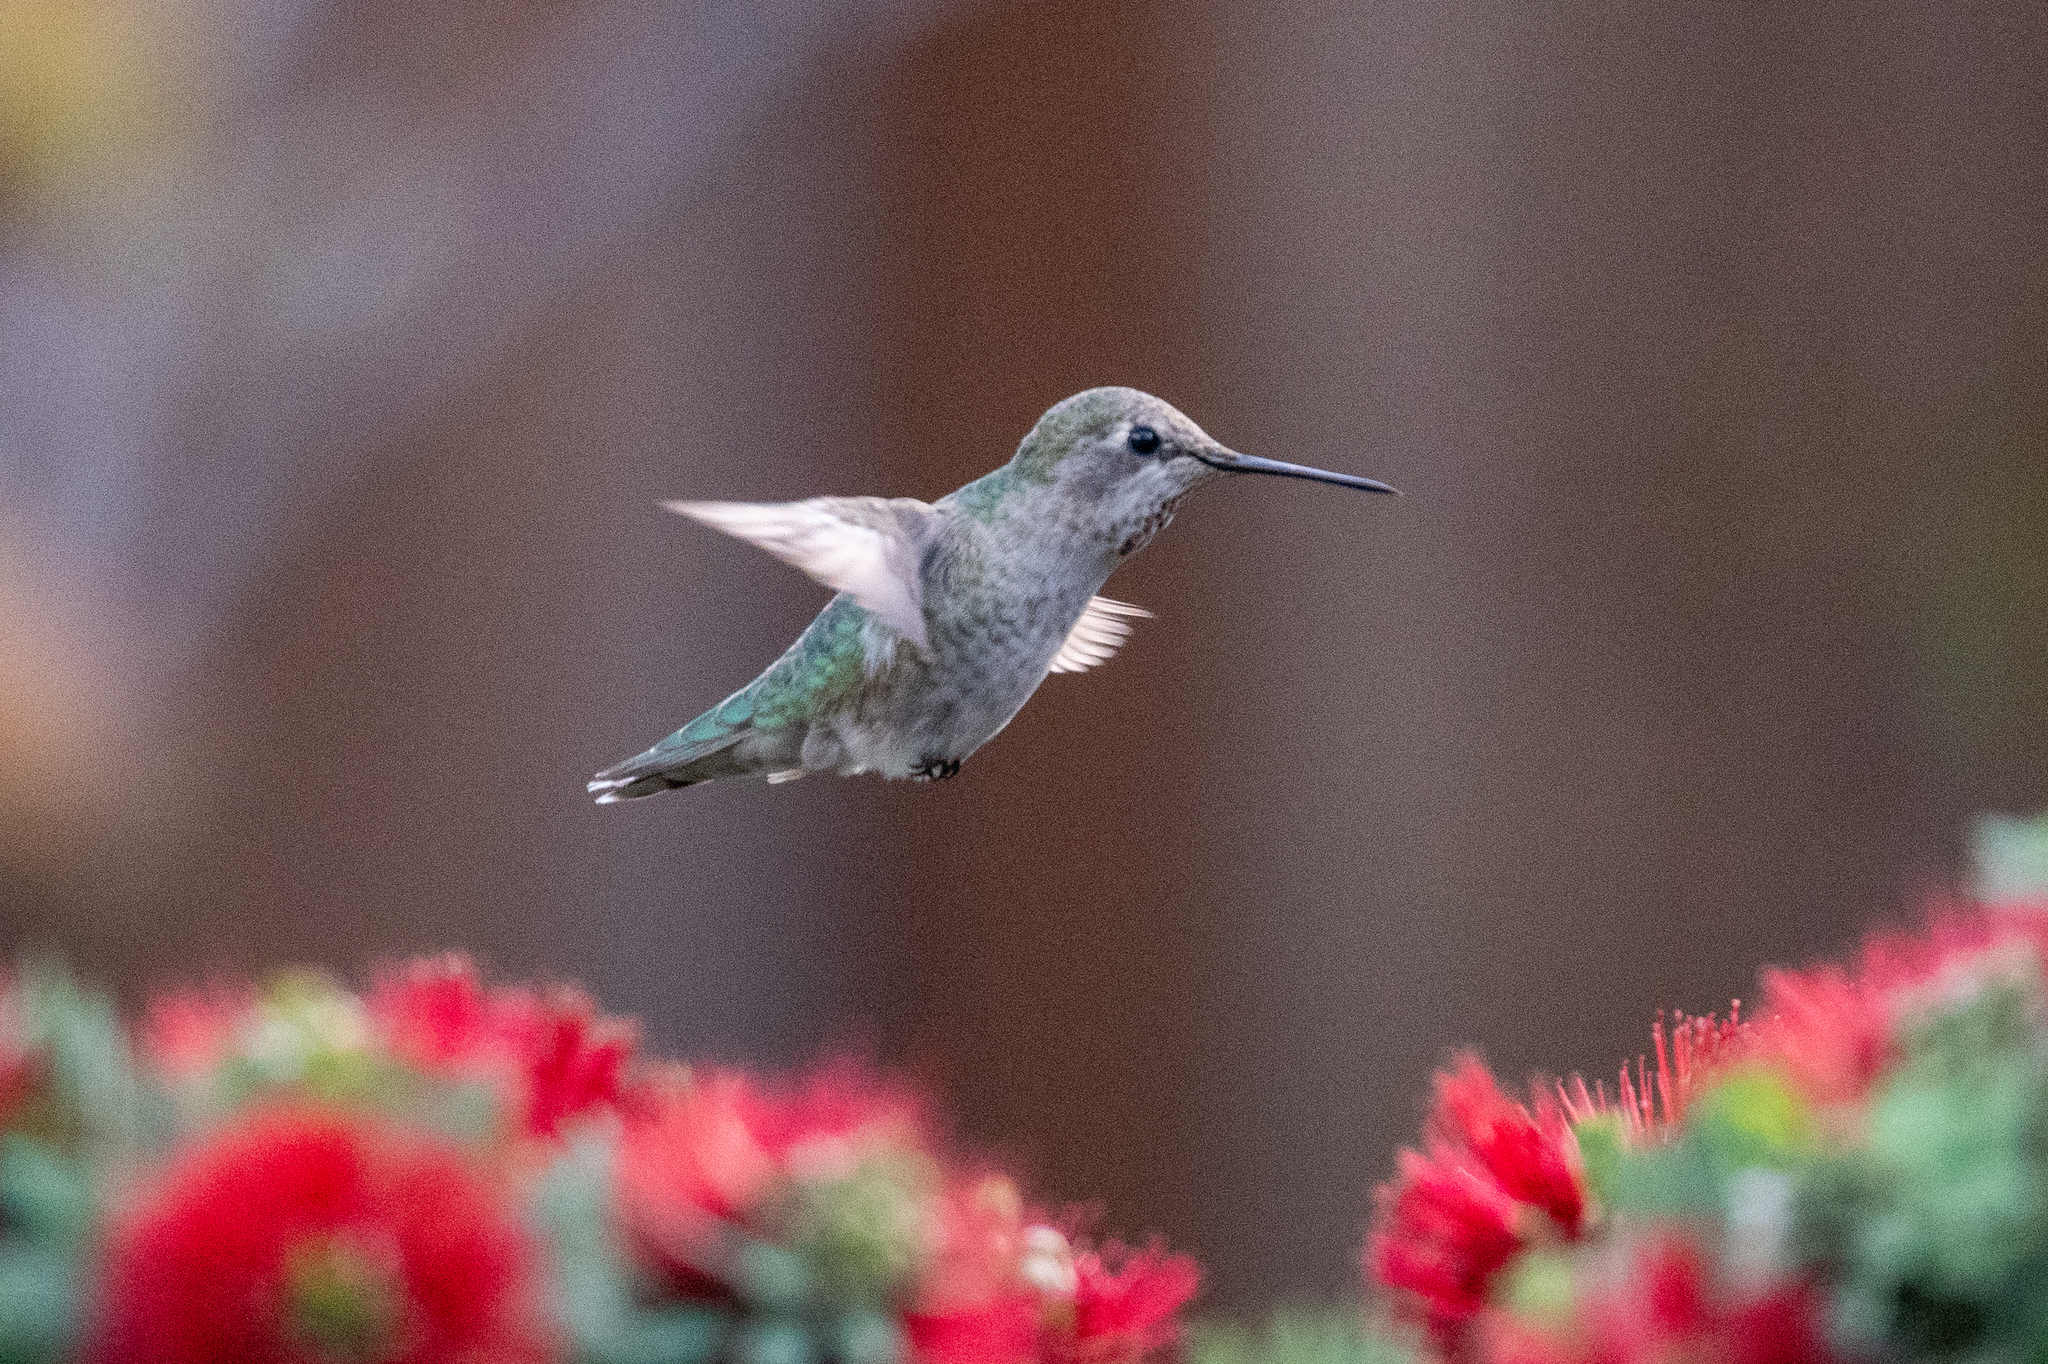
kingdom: Animalia
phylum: Chordata
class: Aves
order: Apodiformes
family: Trochilidae
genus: Calypte
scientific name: Calypte anna
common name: Anna's hummingbird
